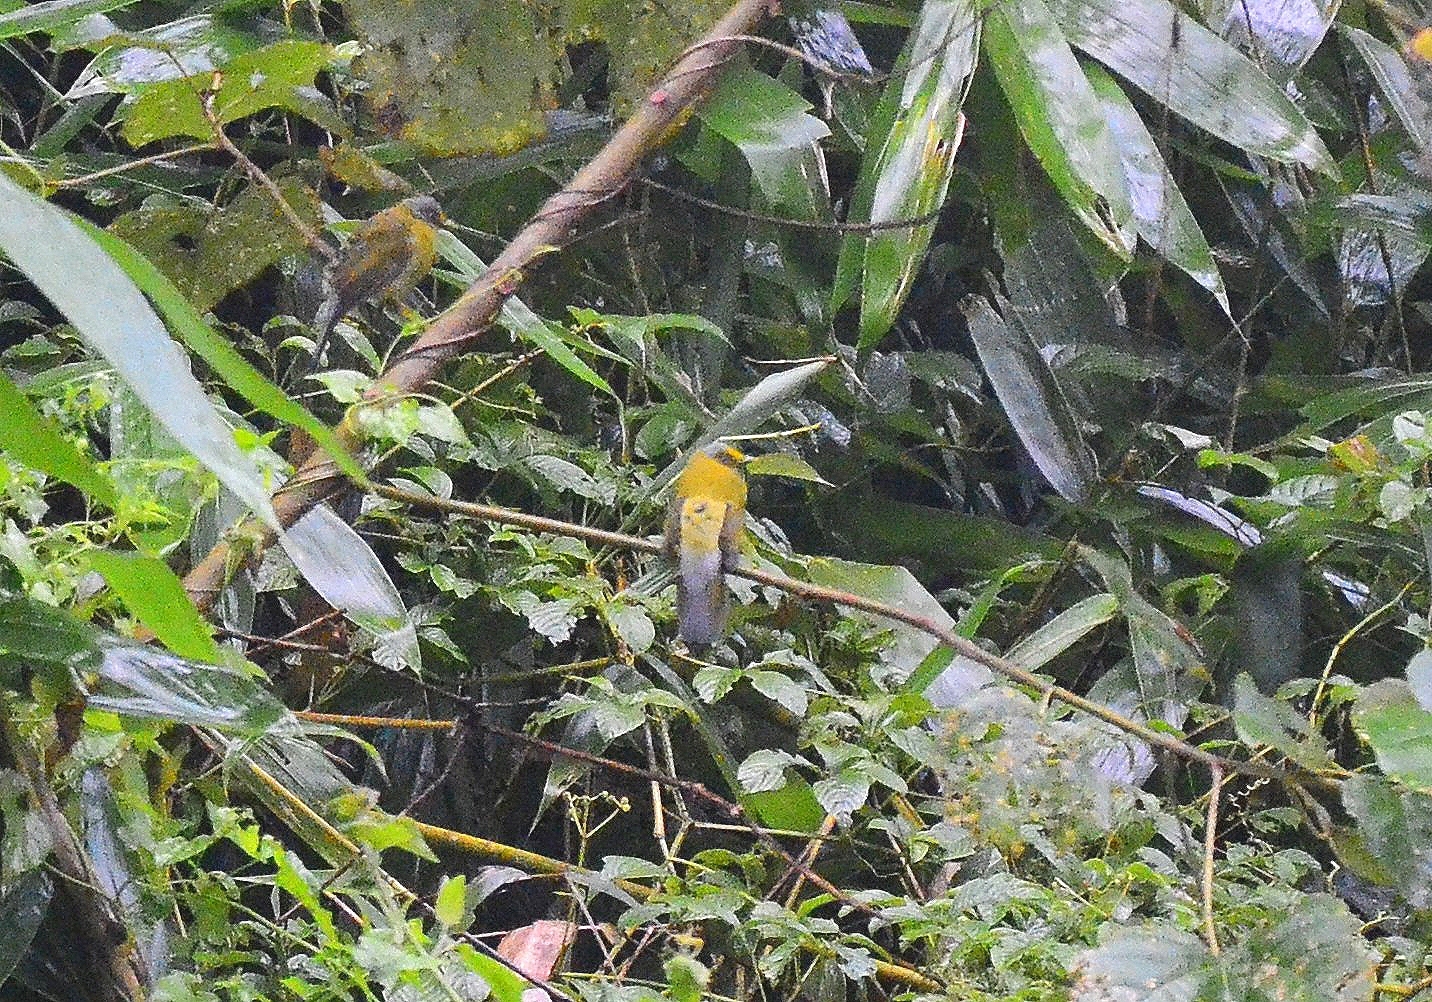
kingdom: Animalia
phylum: Chordata
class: Aves
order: Passeriformes
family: Pycnonotidae
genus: Microtarsus
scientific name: Microtarsus
